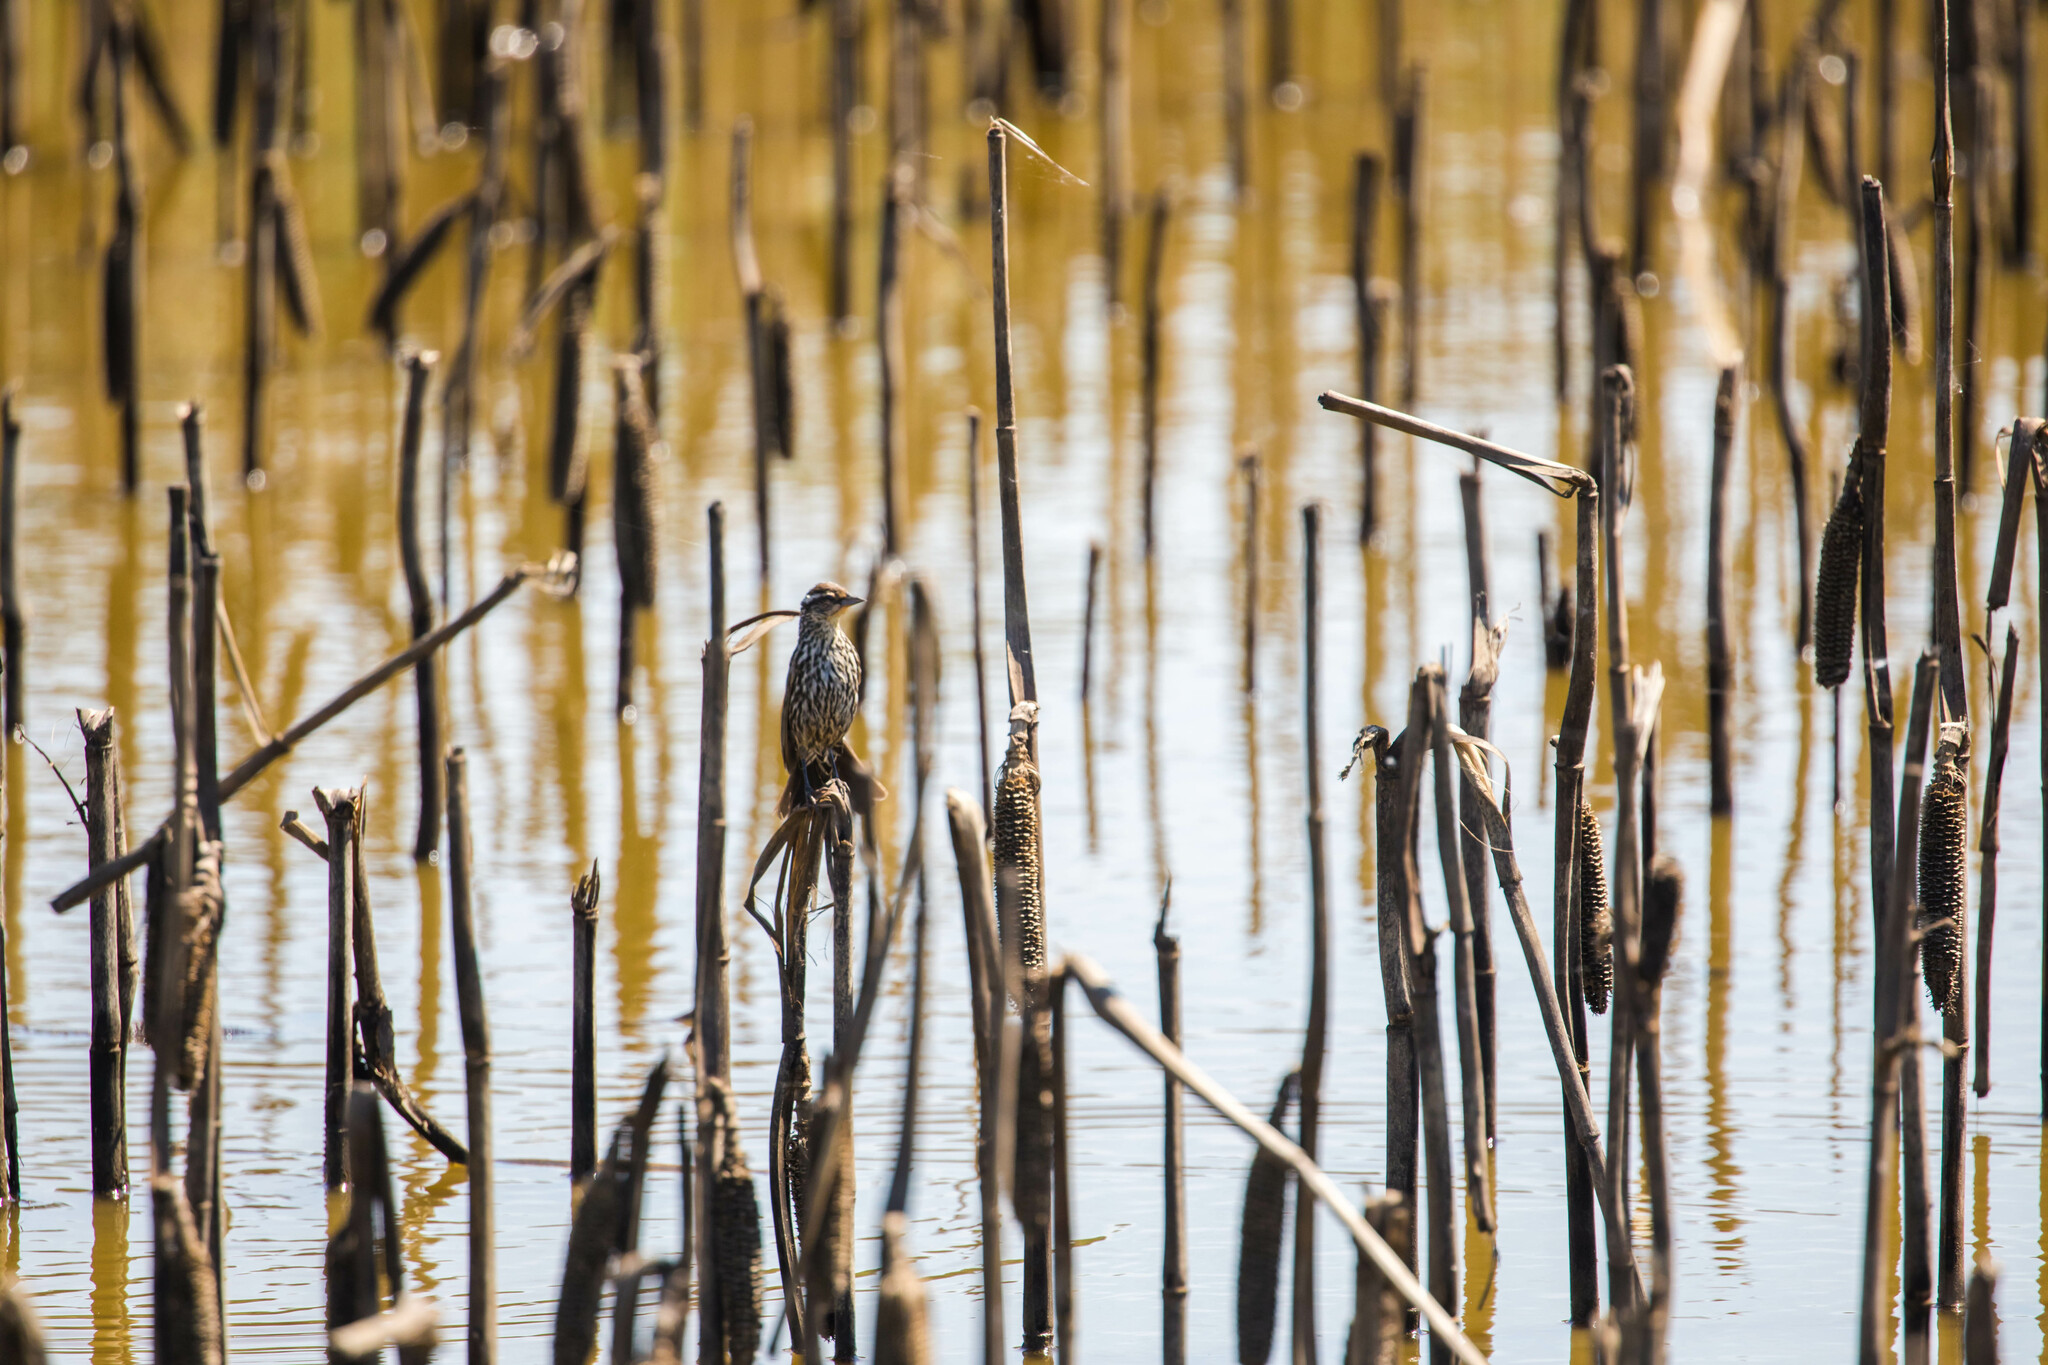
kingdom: Animalia
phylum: Chordata
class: Aves
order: Passeriformes
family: Icteridae
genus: Agelaius
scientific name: Agelaius phoeniceus
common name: Red-winged blackbird
